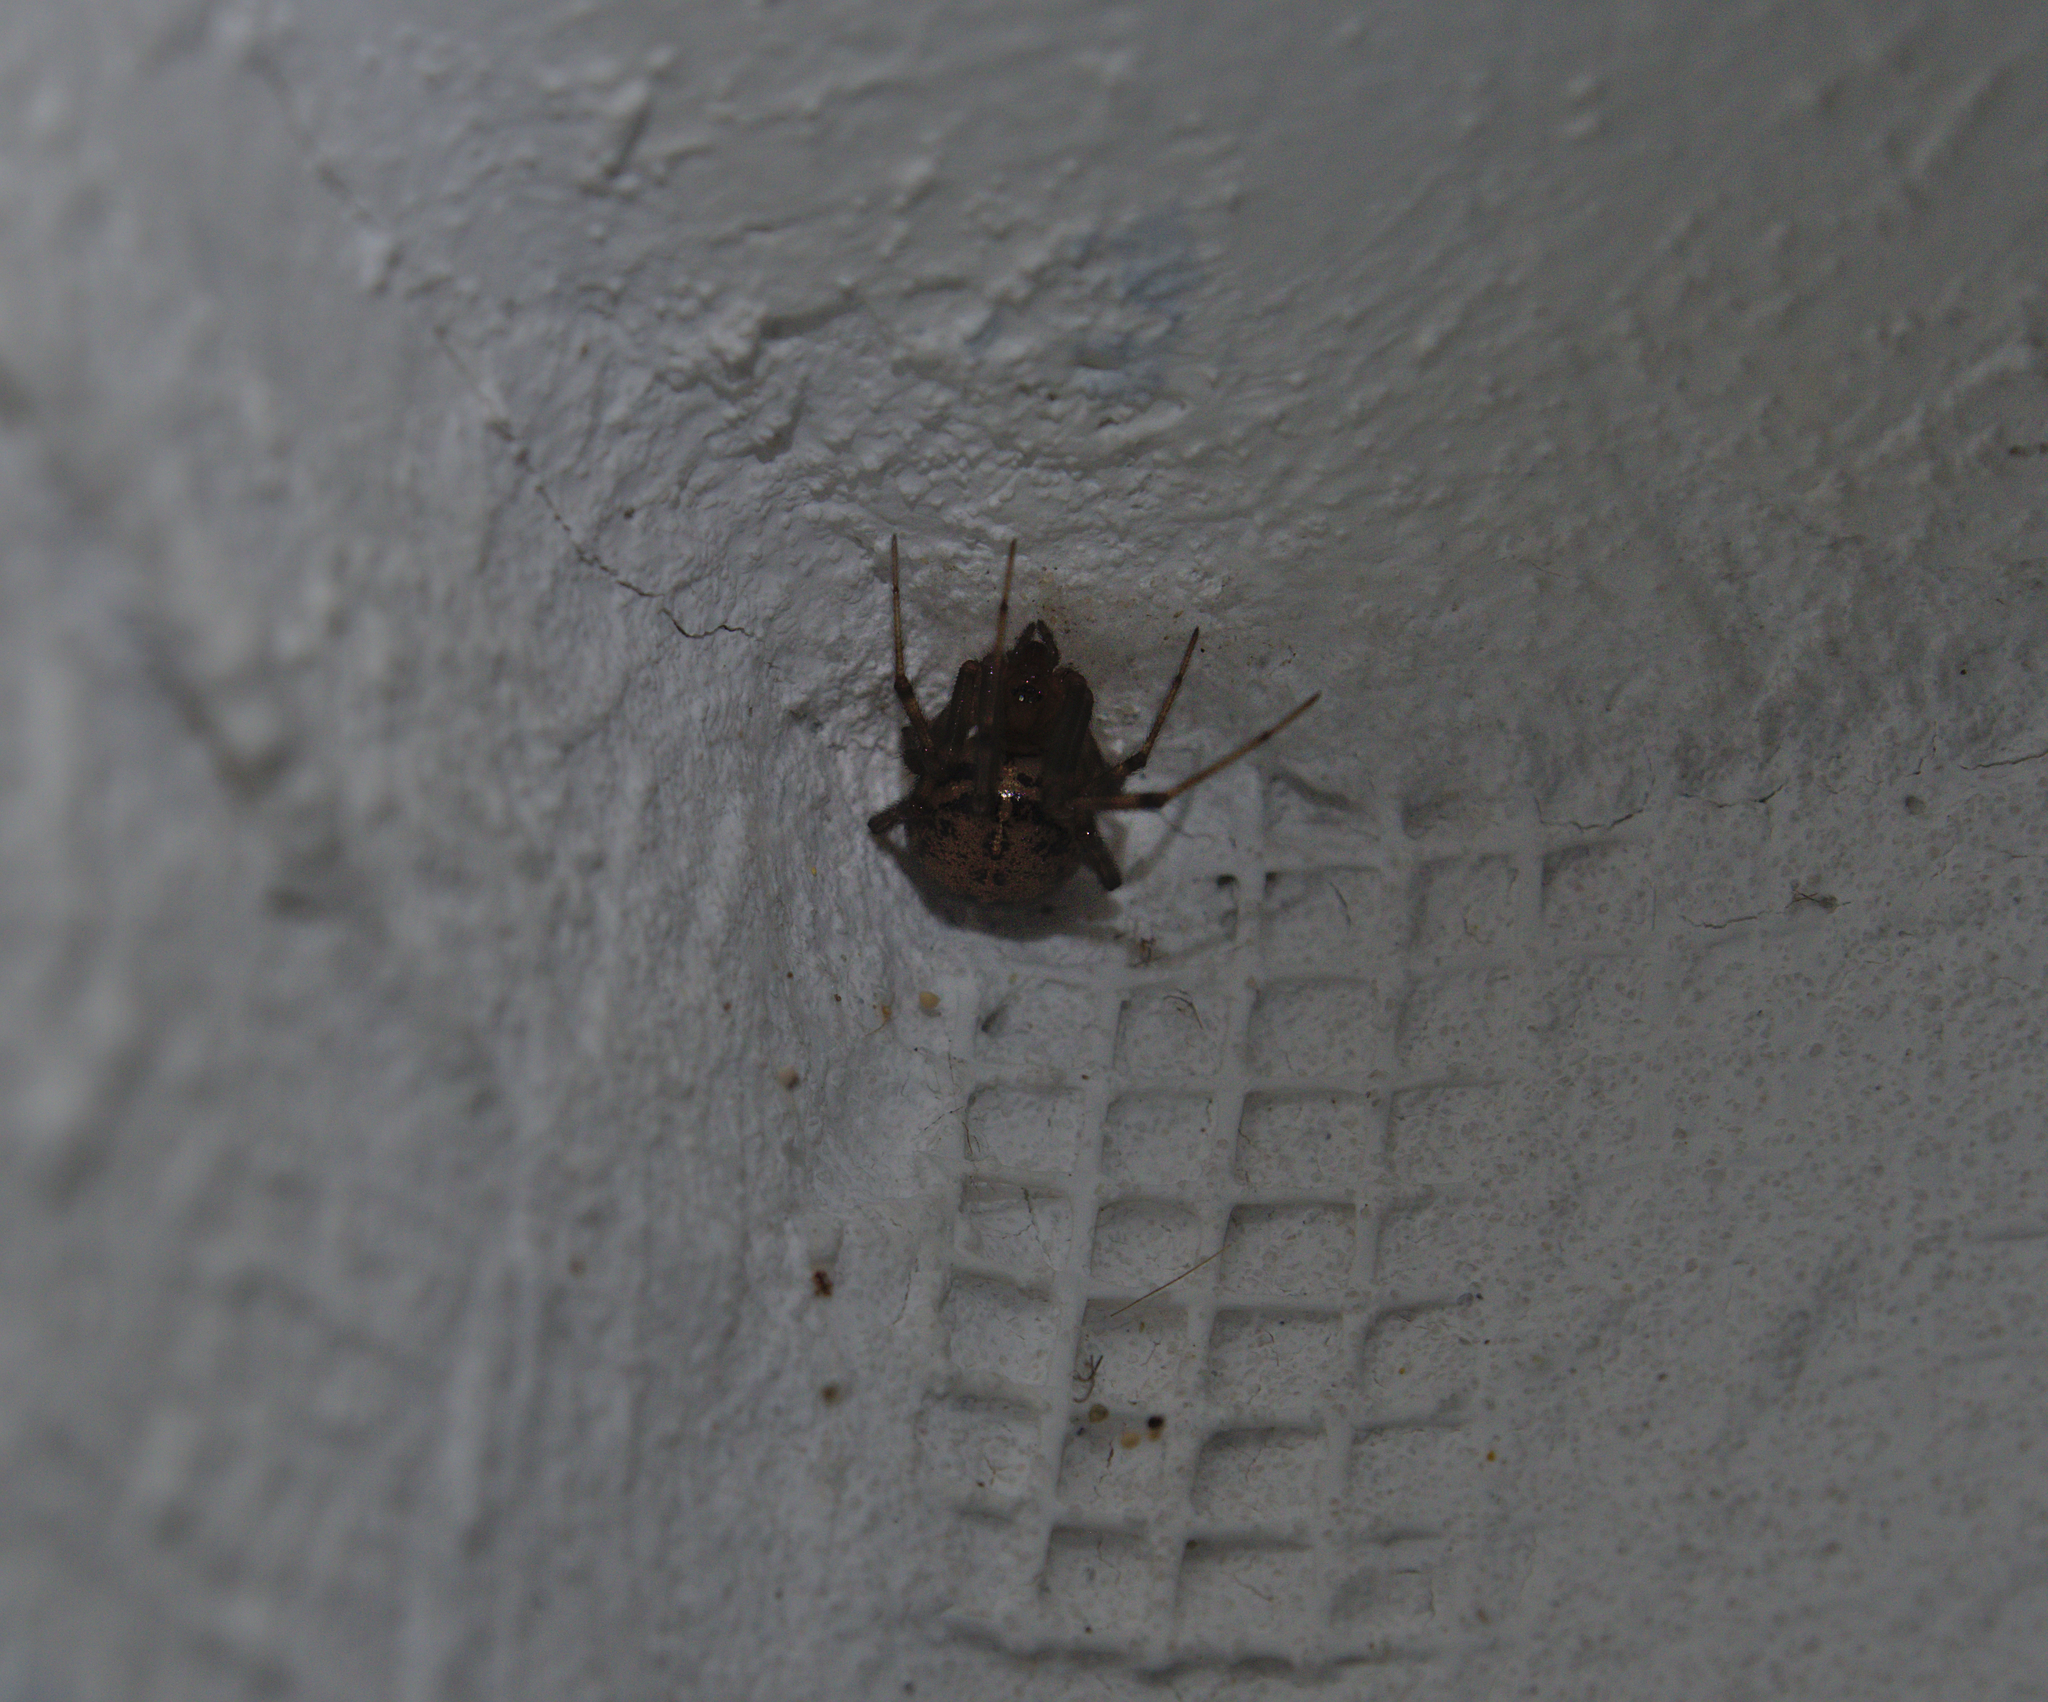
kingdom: Animalia
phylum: Arthropoda
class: Arachnida
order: Araneae
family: Theridiidae
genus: Steatoda
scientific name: Steatoda castanea
